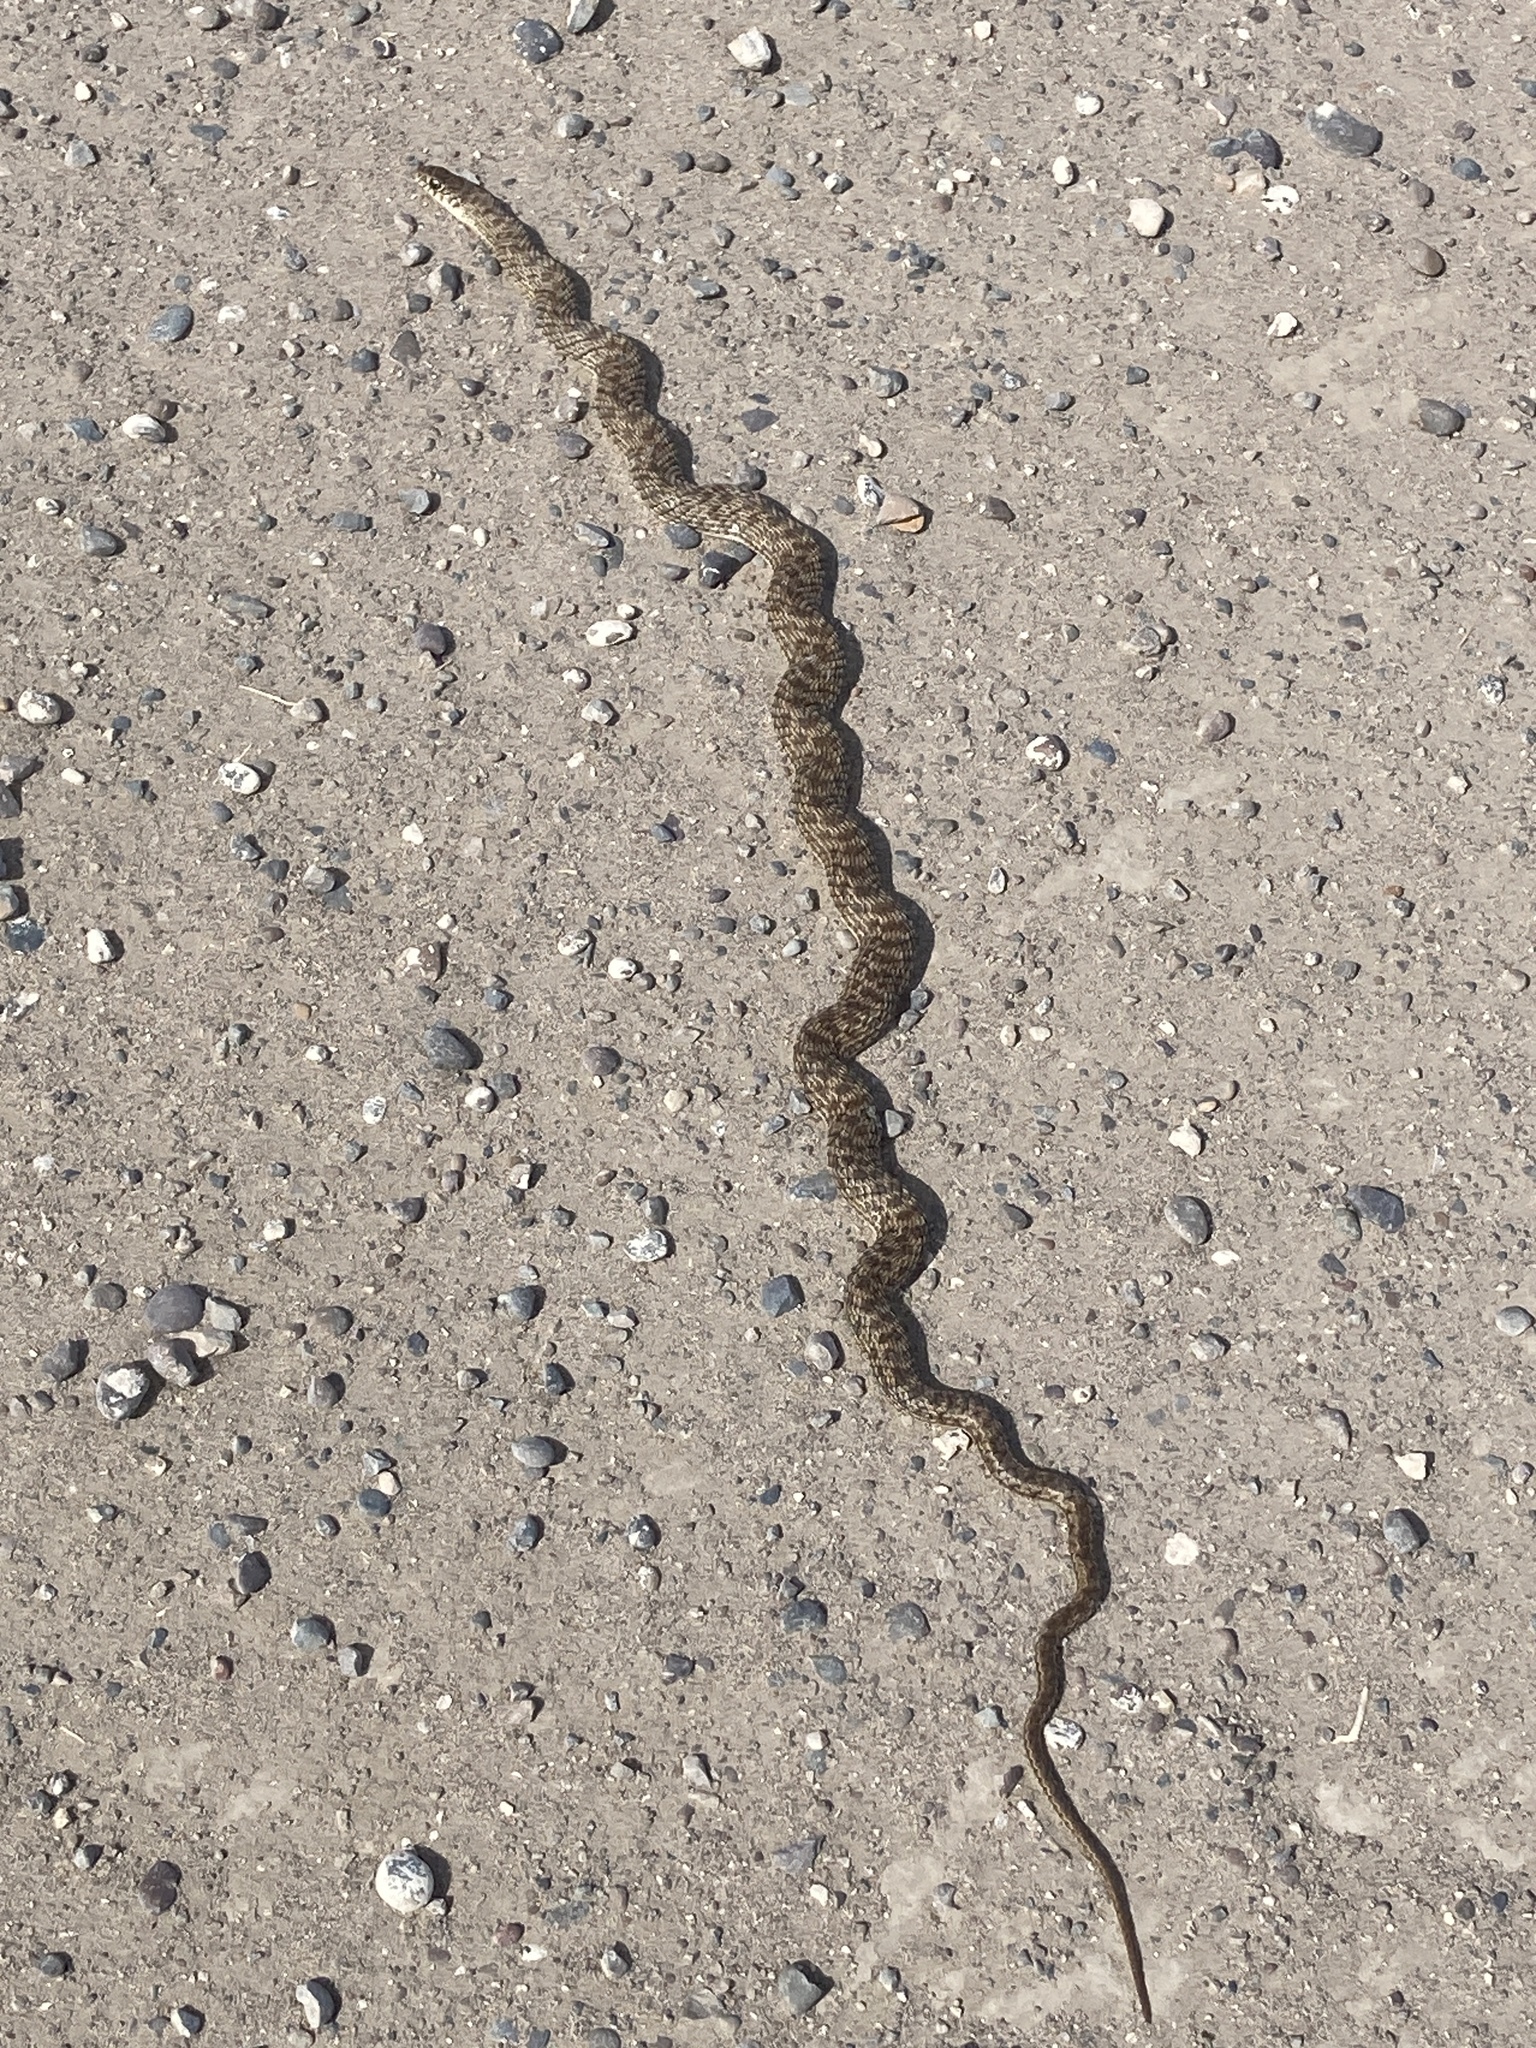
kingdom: Animalia
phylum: Chordata
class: Squamata
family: Colubridae
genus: Philodryas
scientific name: Philodryas patagoniensis
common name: Patagonia green racer
